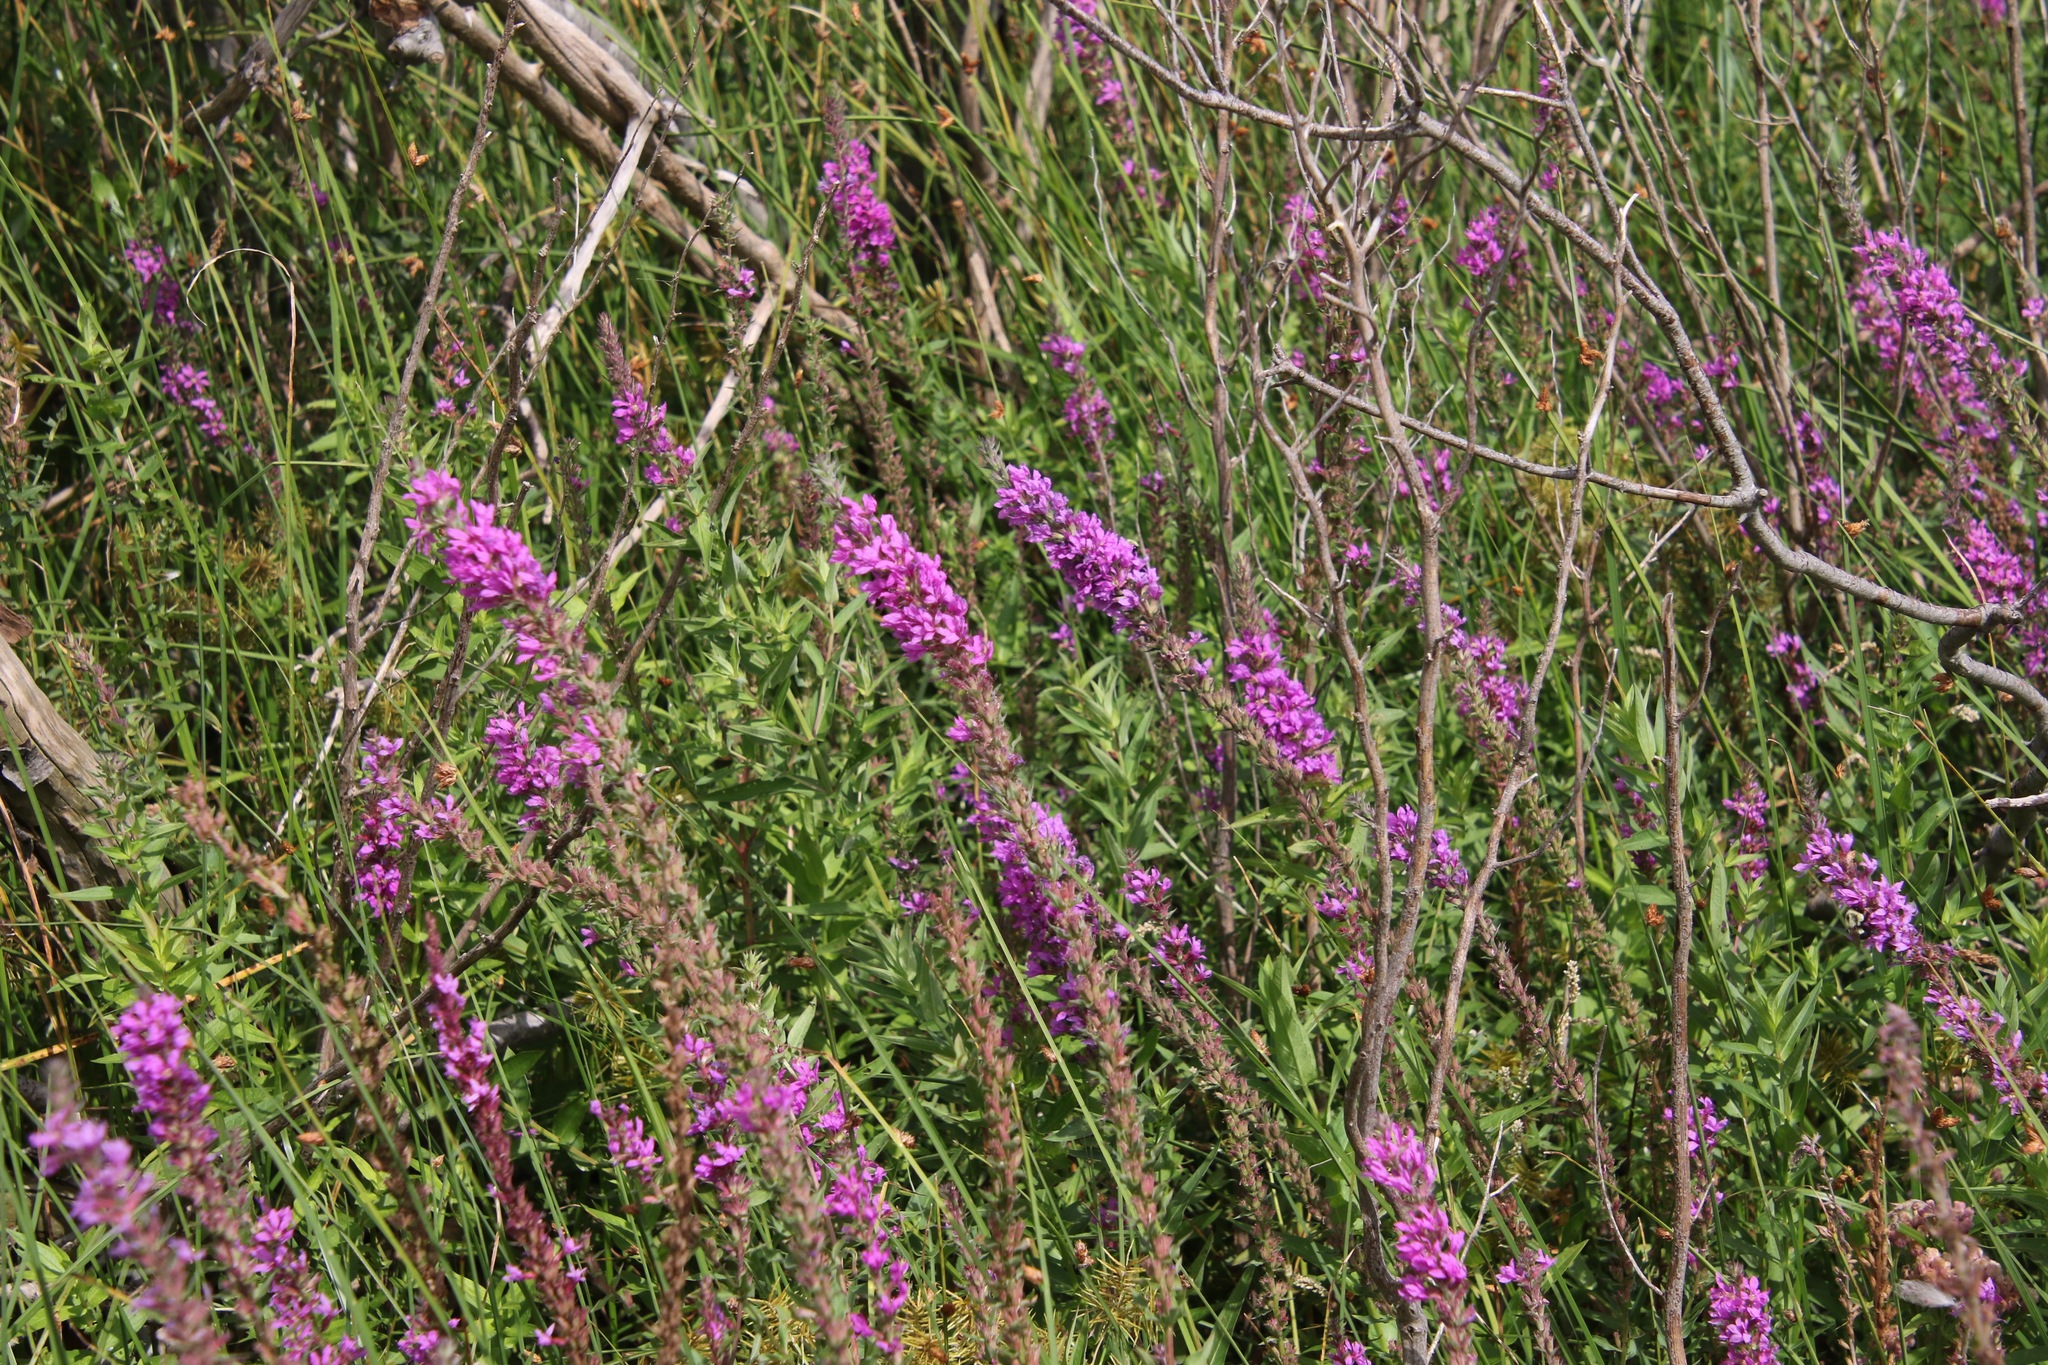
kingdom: Plantae
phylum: Tracheophyta
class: Magnoliopsida
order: Myrtales
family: Lythraceae
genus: Lythrum
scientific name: Lythrum salicaria
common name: Purple loosestrife
